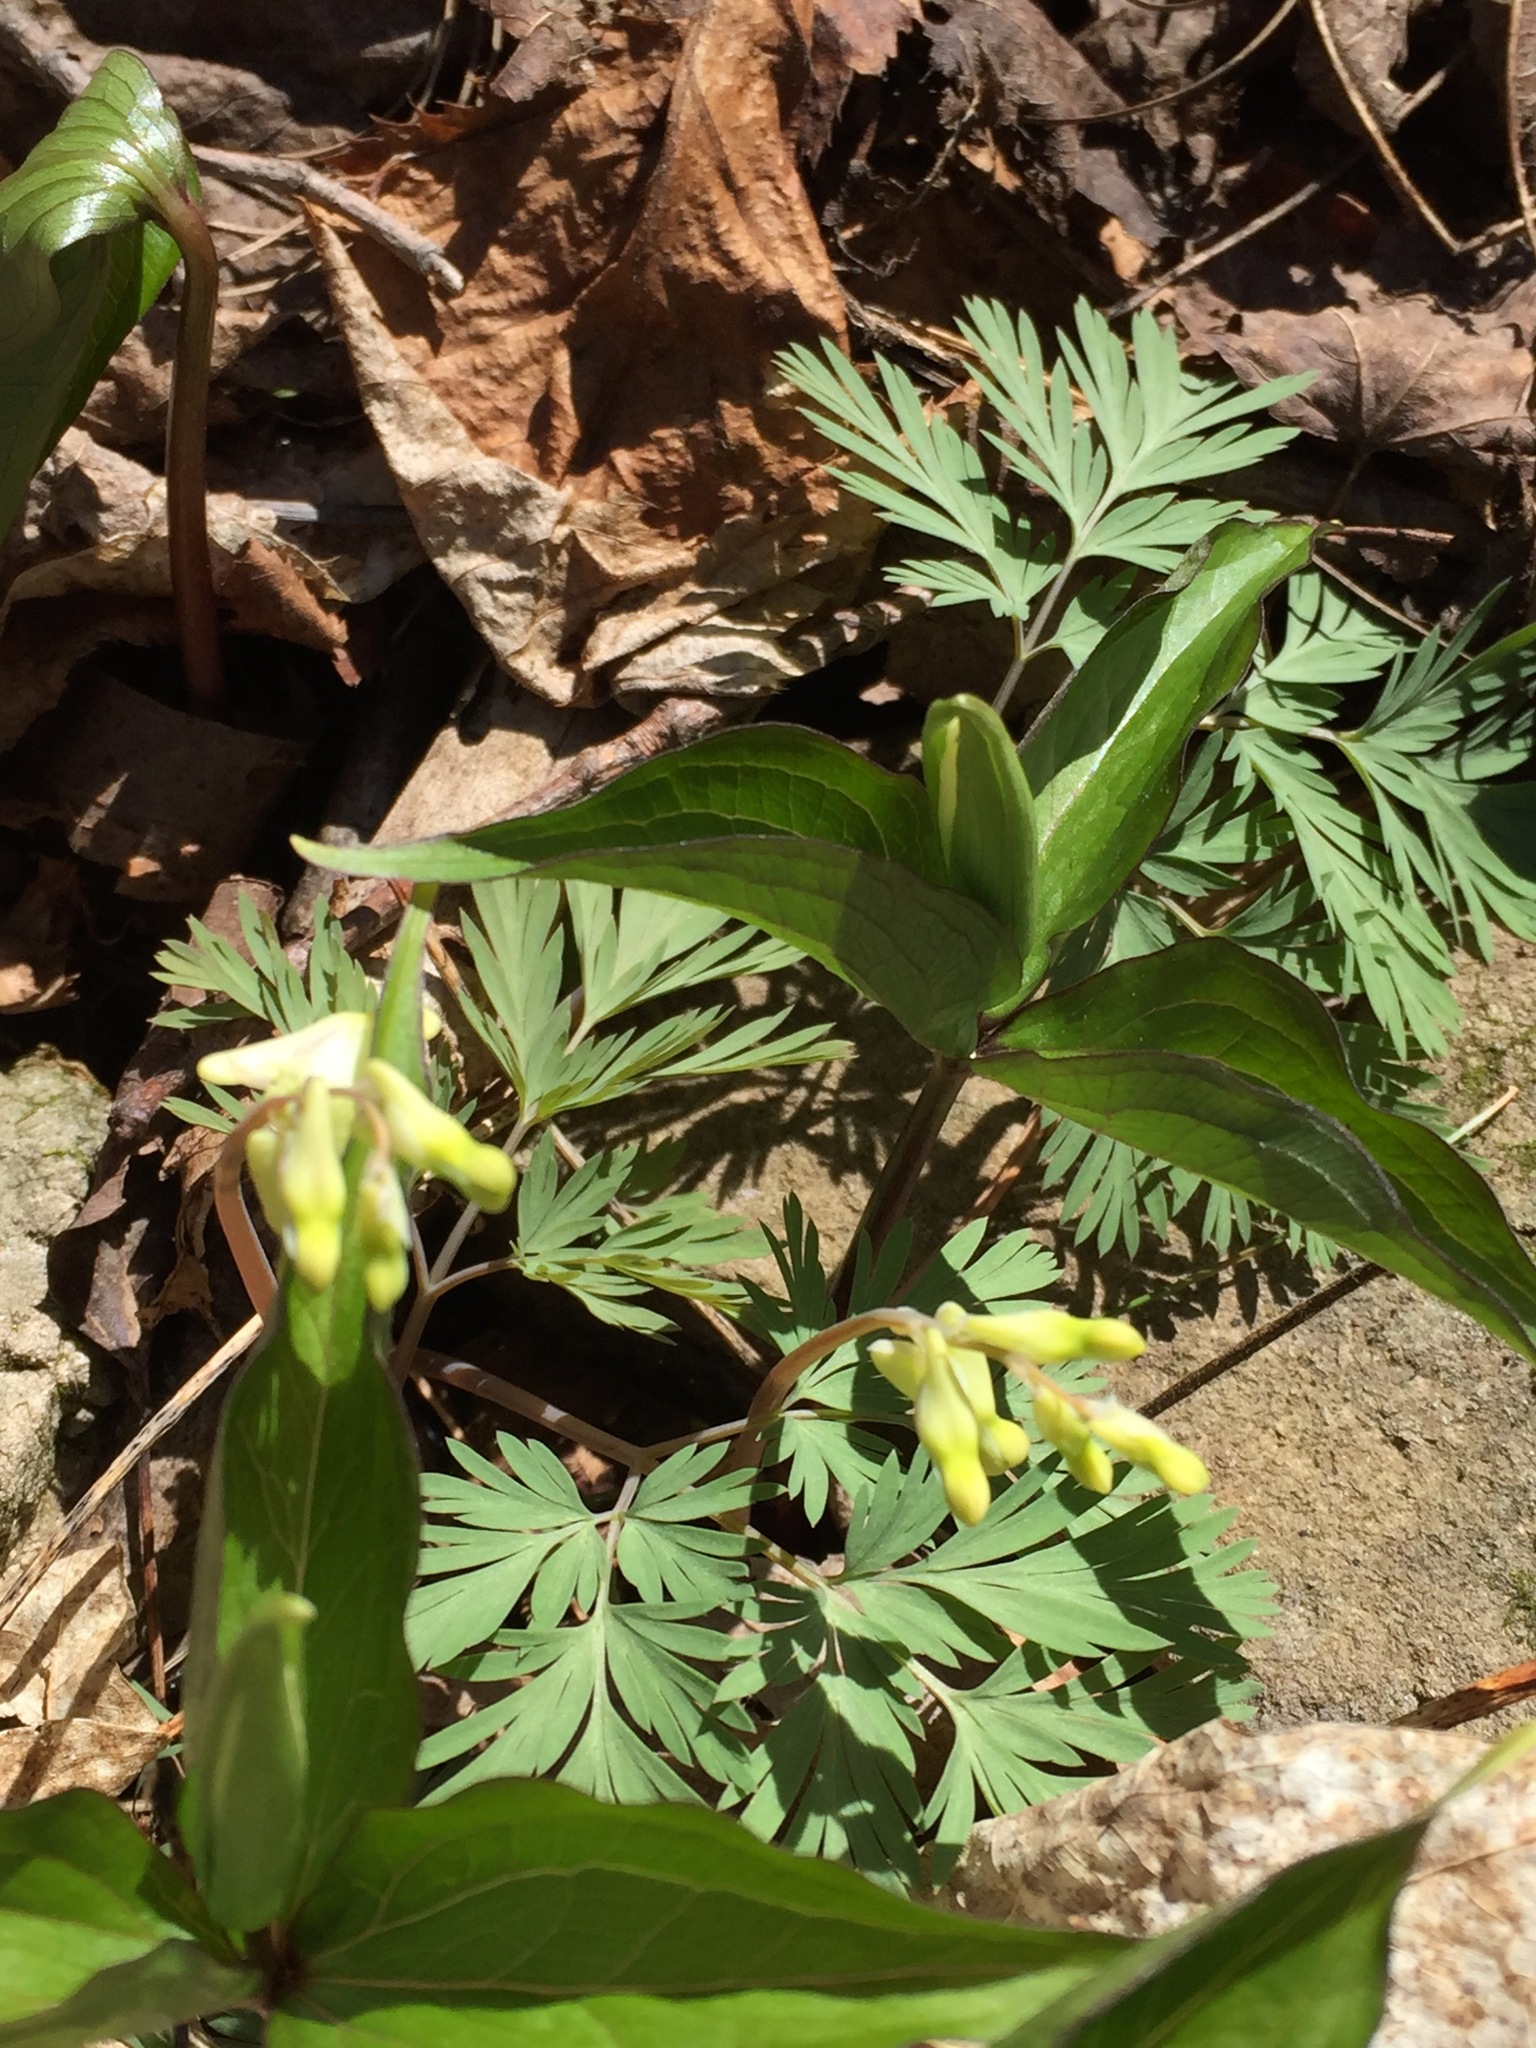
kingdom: Plantae
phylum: Tracheophyta
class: Magnoliopsida
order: Ranunculales
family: Papaveraceae
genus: Dicentra
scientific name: Dicentra cucullaria
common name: Dutchman's breeches
